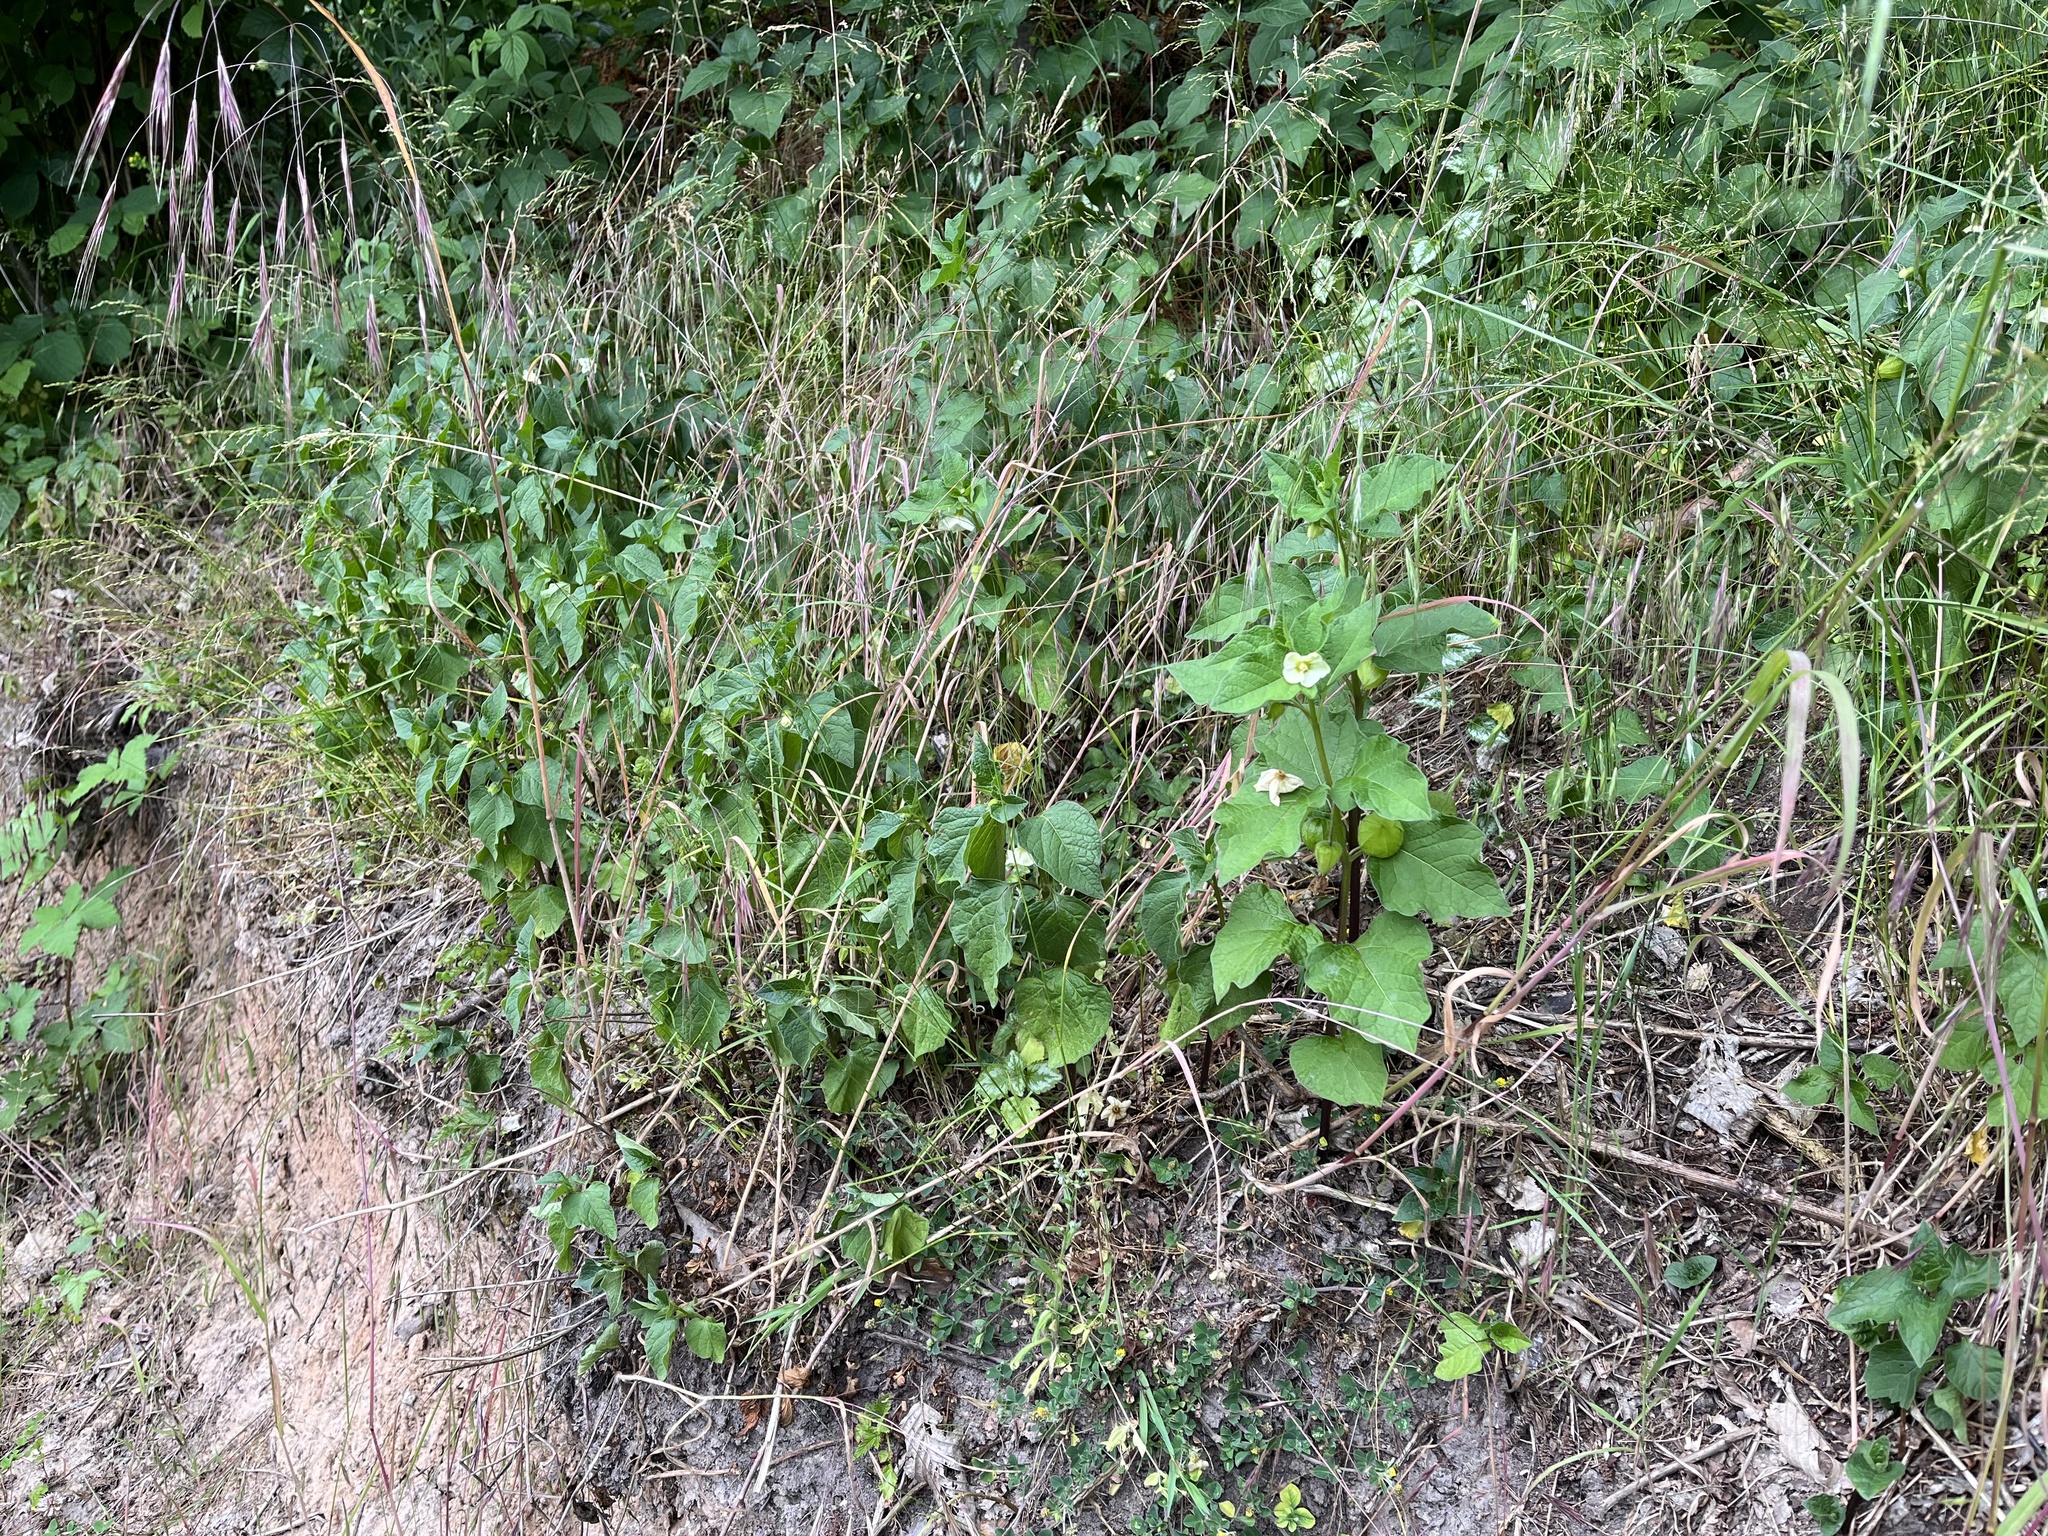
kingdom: Plantae
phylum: Tracheophyta
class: Magnoliopsida
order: Solanales
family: Solanaceae
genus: Alkekengi
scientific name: Alkekengi officinarum
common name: Japanese-lantern
